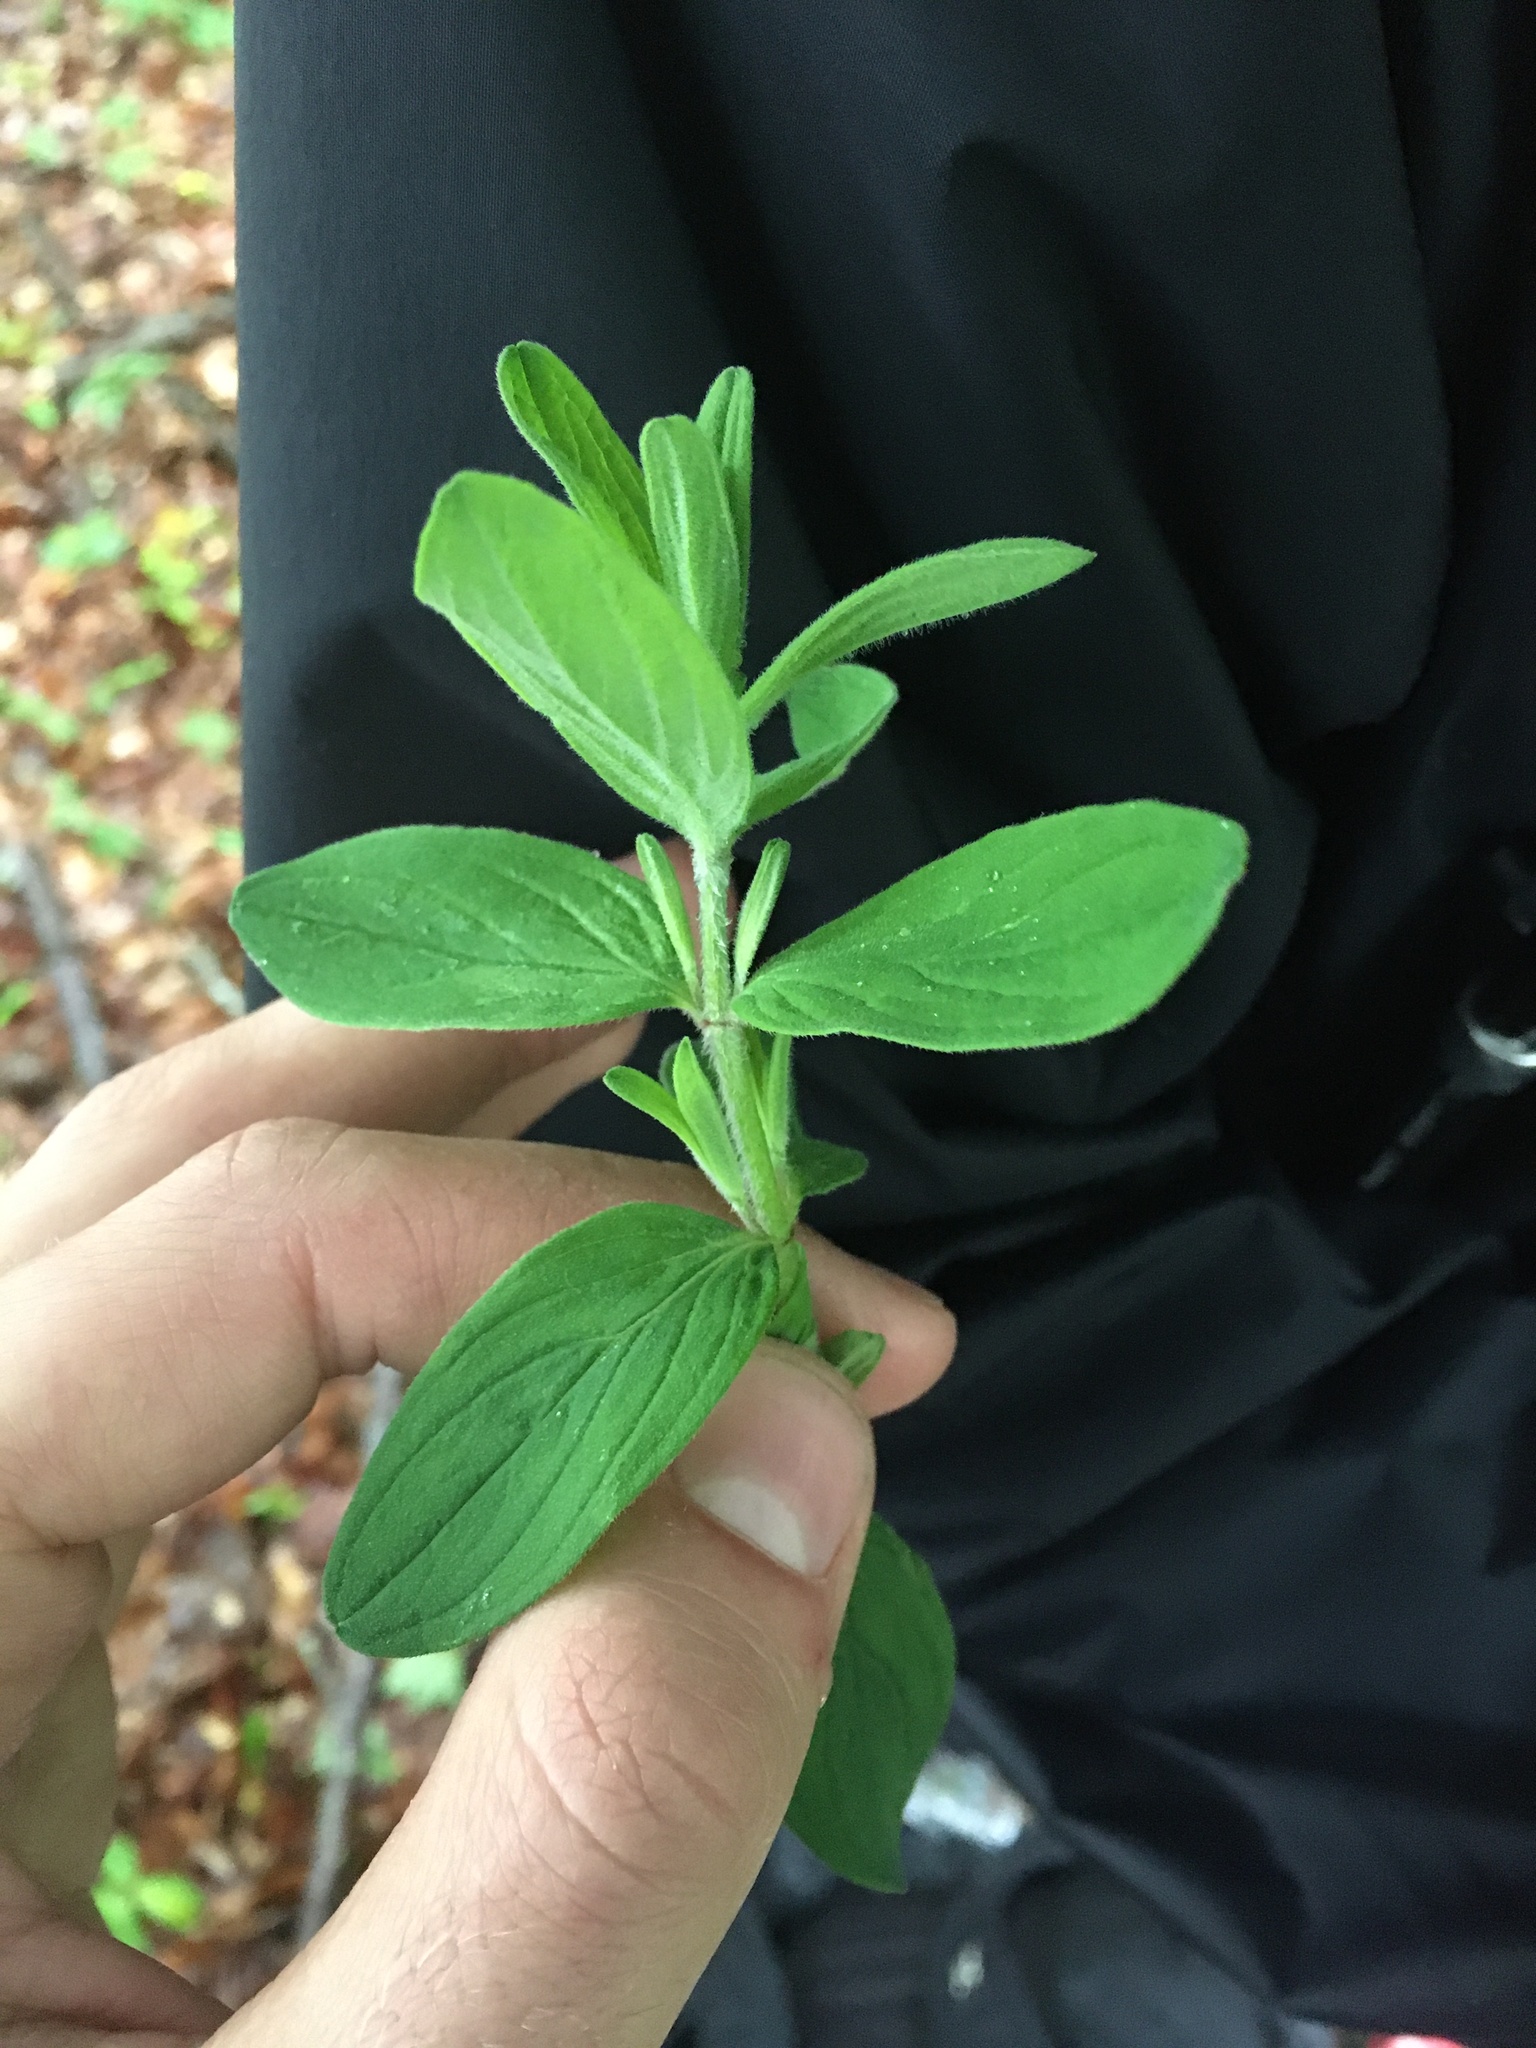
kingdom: Plantae
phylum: Tracheophyta
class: Magnoliopsida
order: Malpighiales
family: Hypericaceae
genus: Hypericum
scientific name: Hypericum hirsutum
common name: Hairy st. john's-wort
